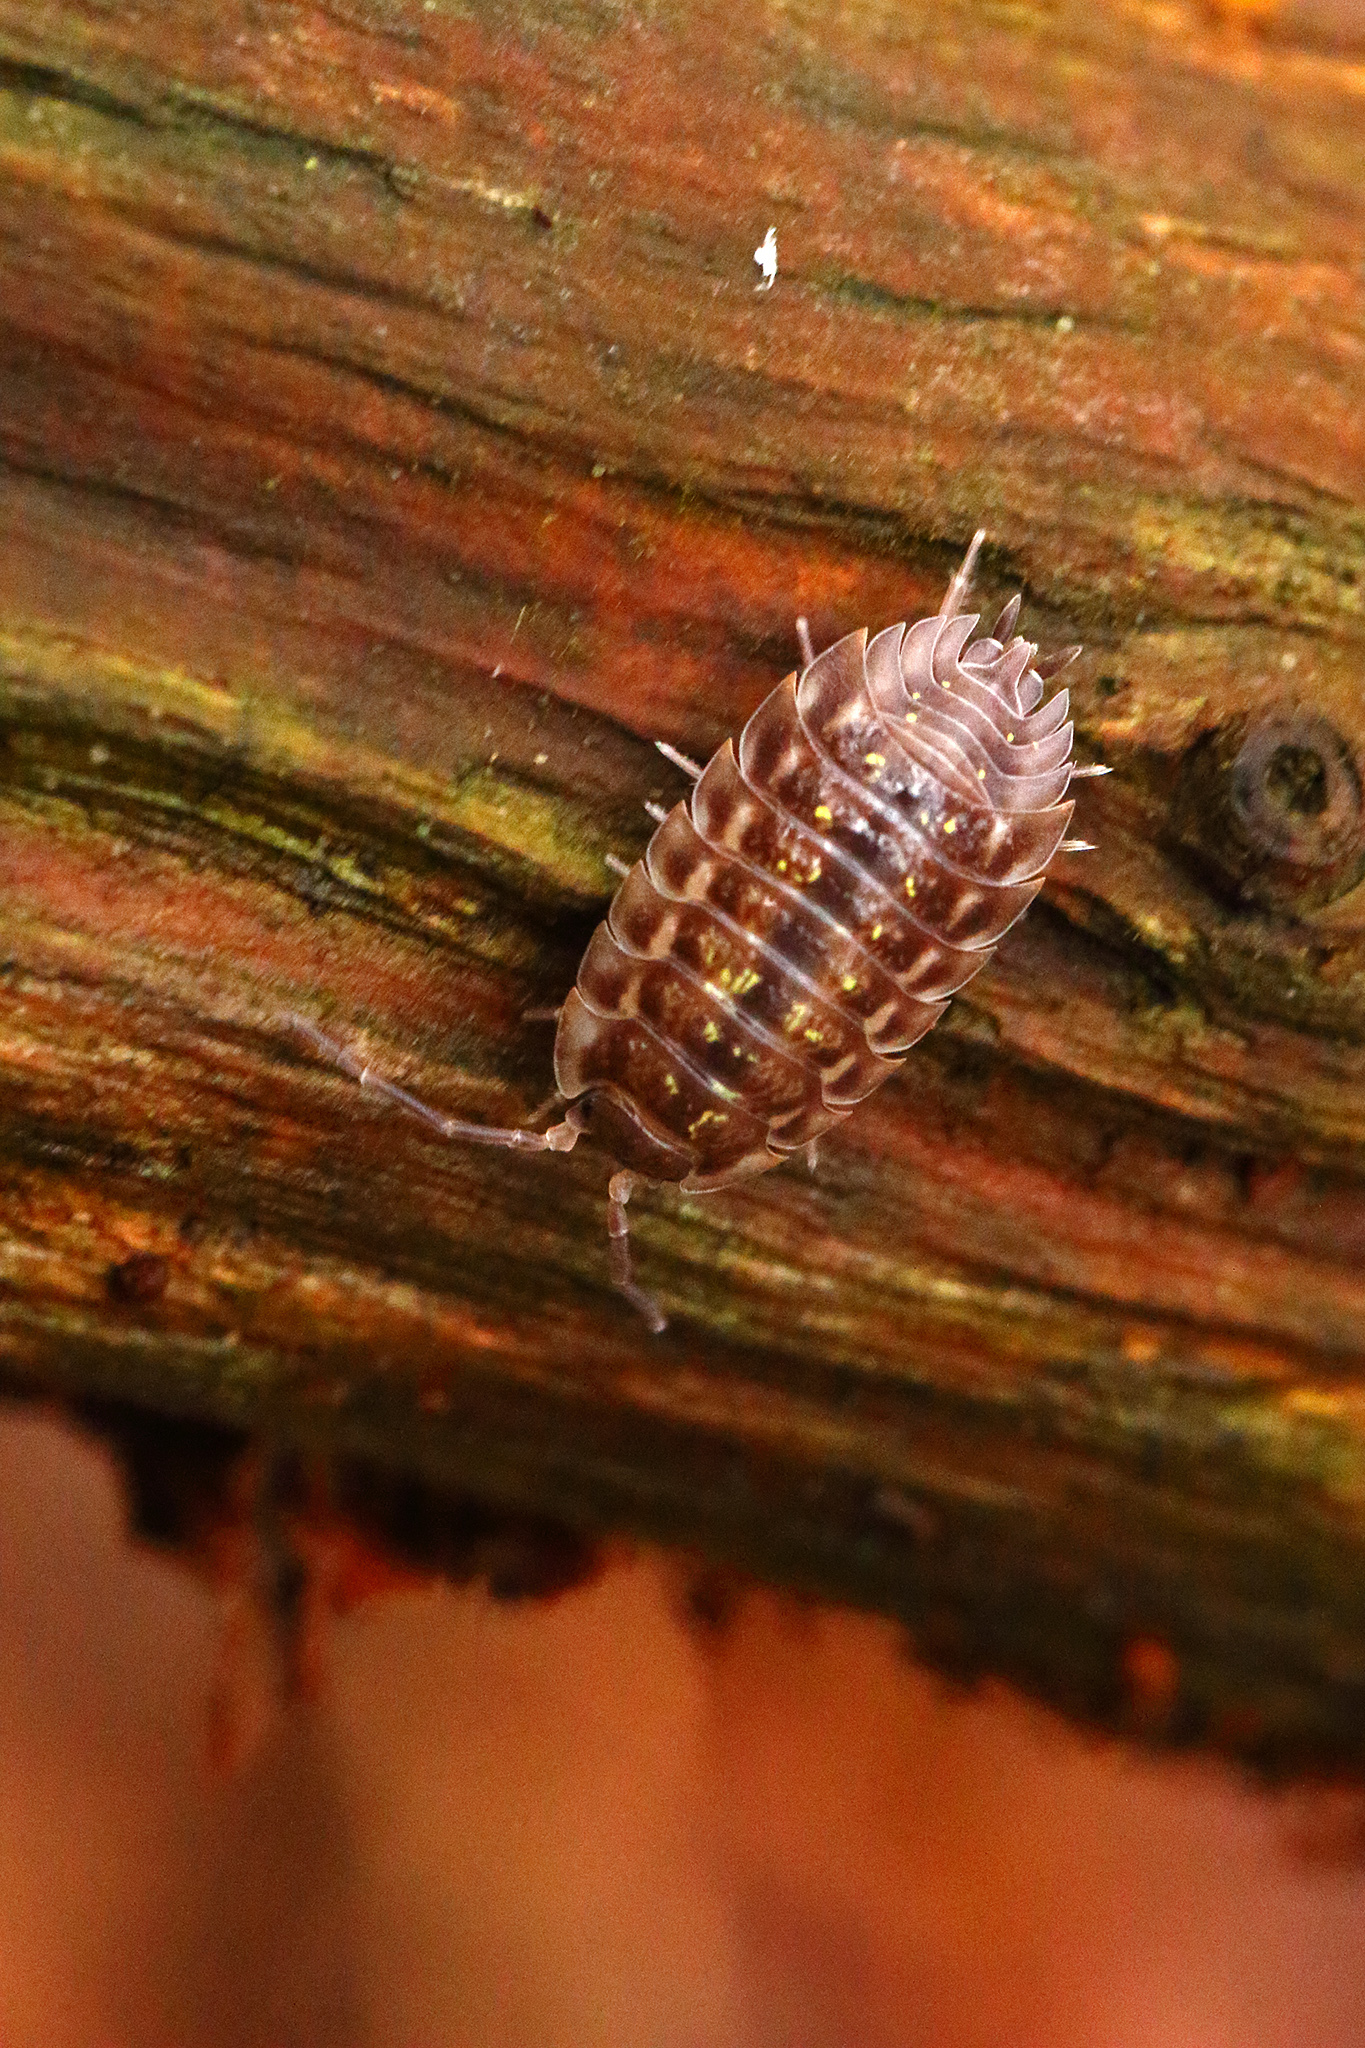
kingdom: Animalia
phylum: Arthropoda
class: Malacostraca
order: Isopoda
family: Oniscidae
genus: Oniscus
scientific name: Oniscus asellus
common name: Common shiny woodlouse
